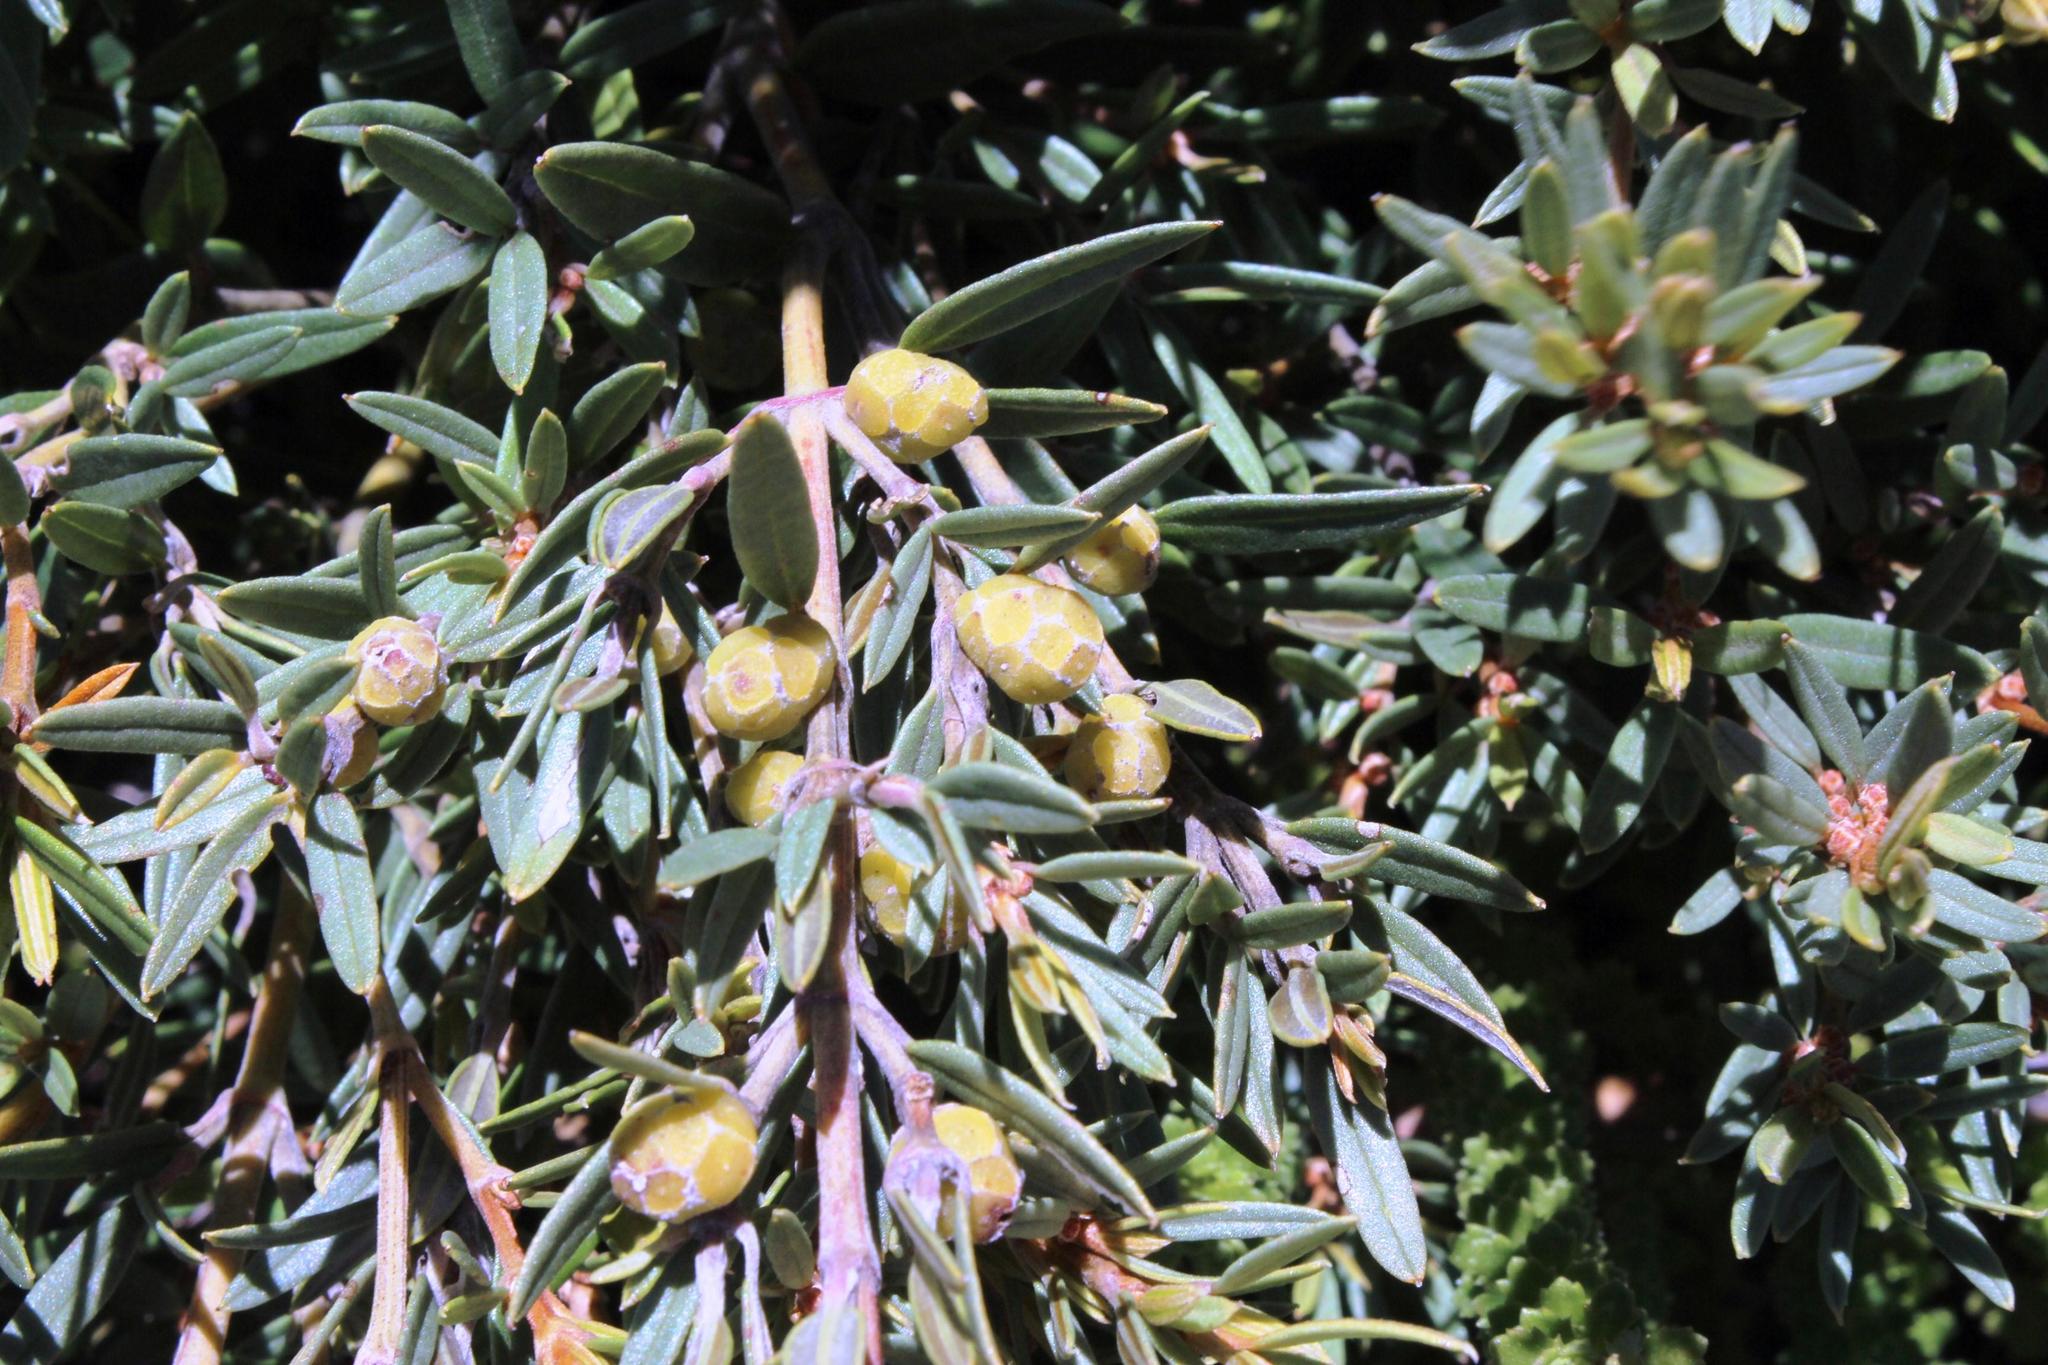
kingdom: Plantae
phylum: Tracheophyta
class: Magnoliopsida
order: Cornales
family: Grubbiaceae
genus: Grubbia
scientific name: Grubbia tomentosa
